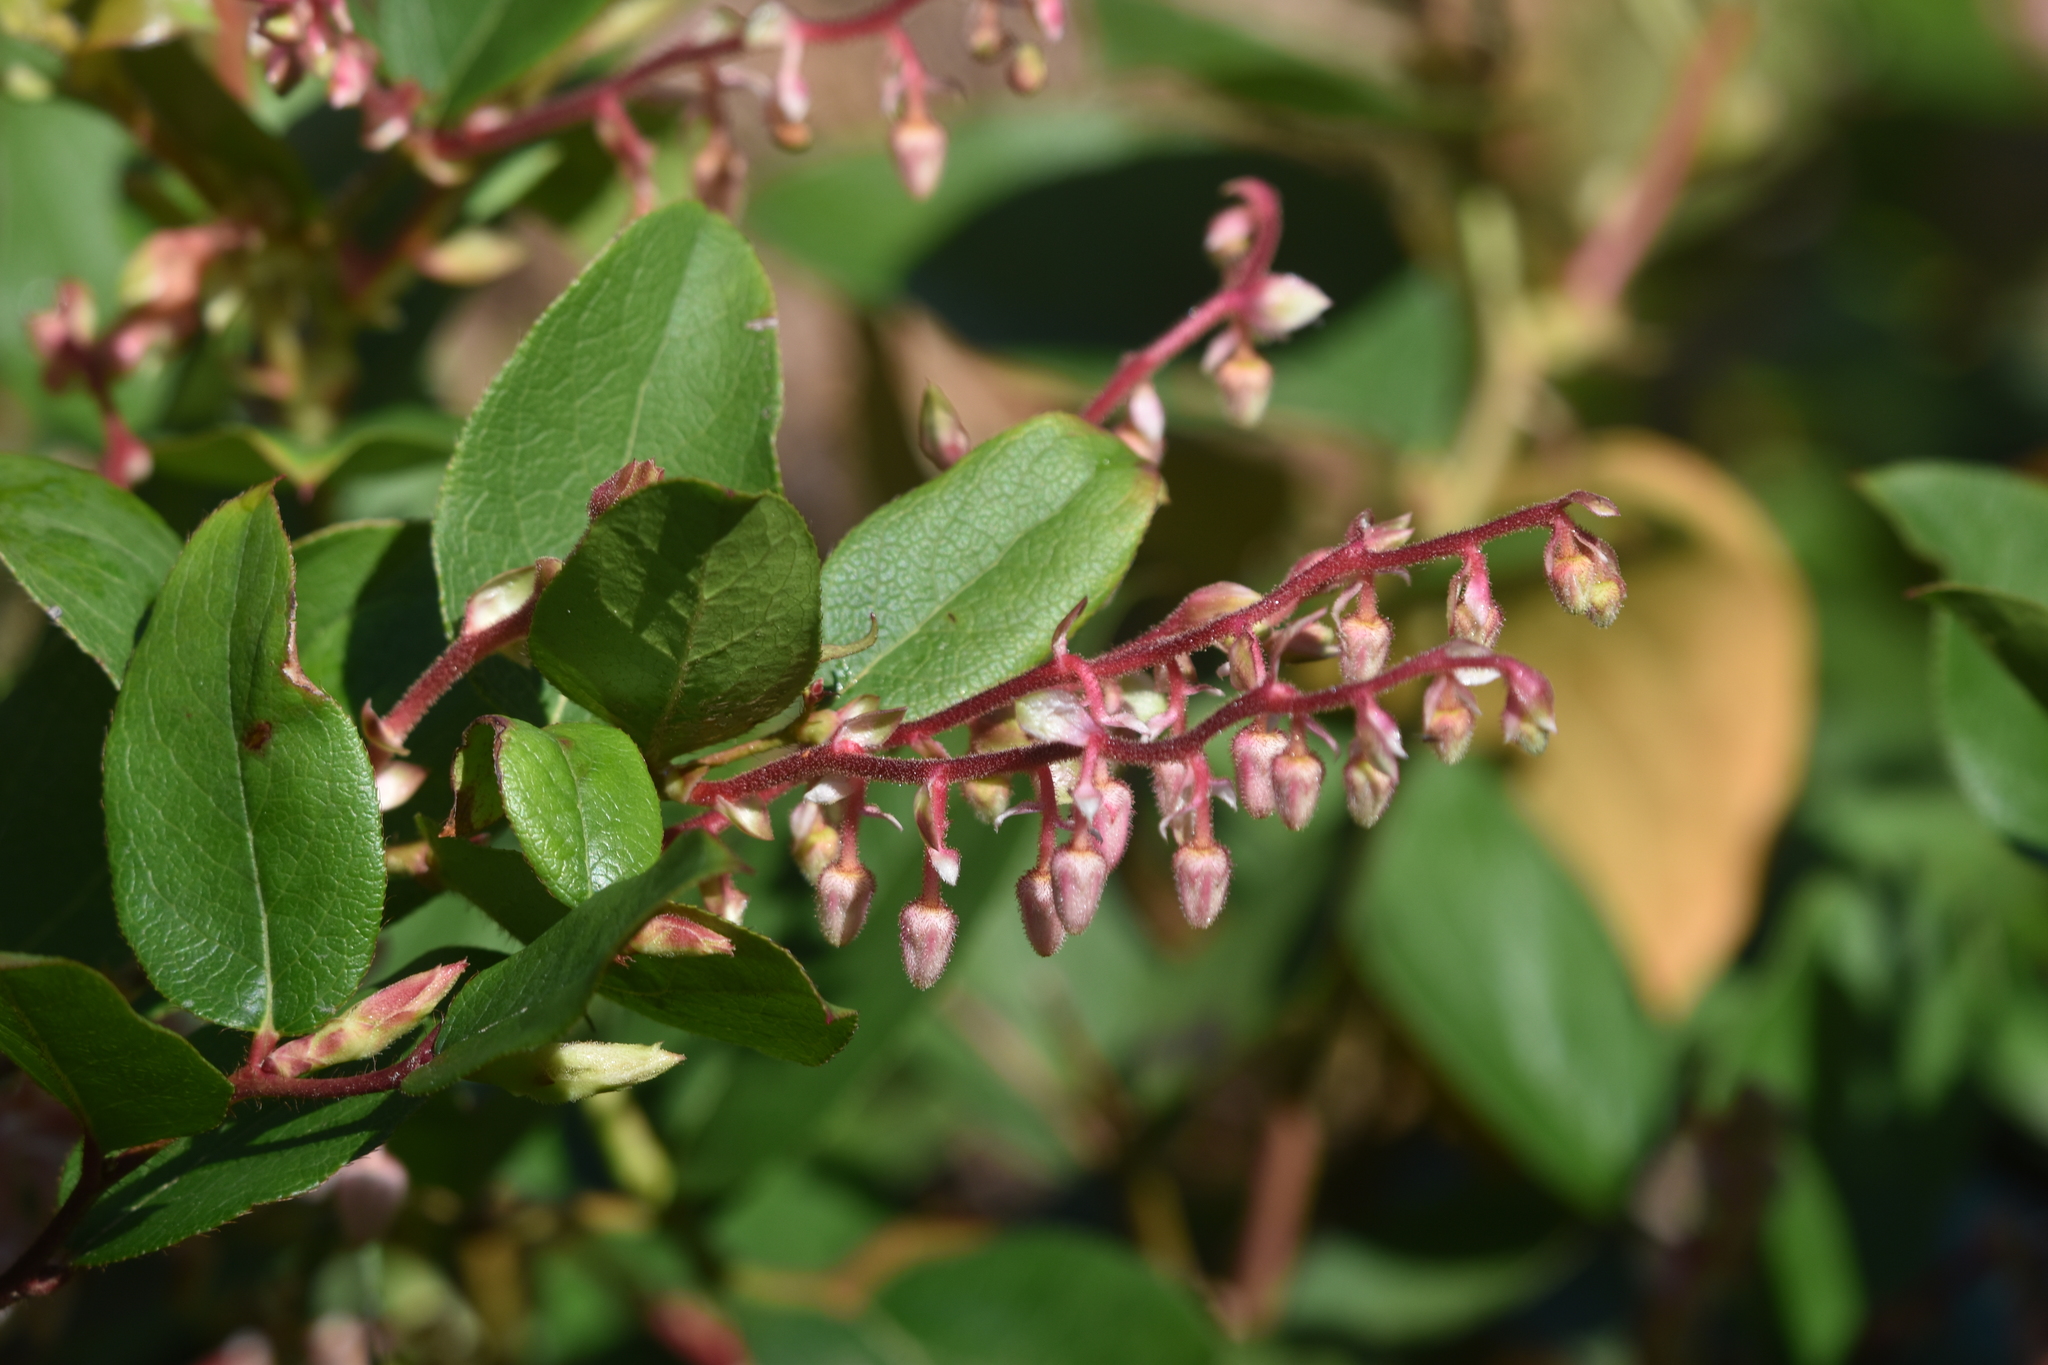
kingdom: Plantae
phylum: Tracheophyta
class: Magnoliopsida
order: Ericales
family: Ericaceae
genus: Gaultheria
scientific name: Gaultheria shallon
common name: Shallon
